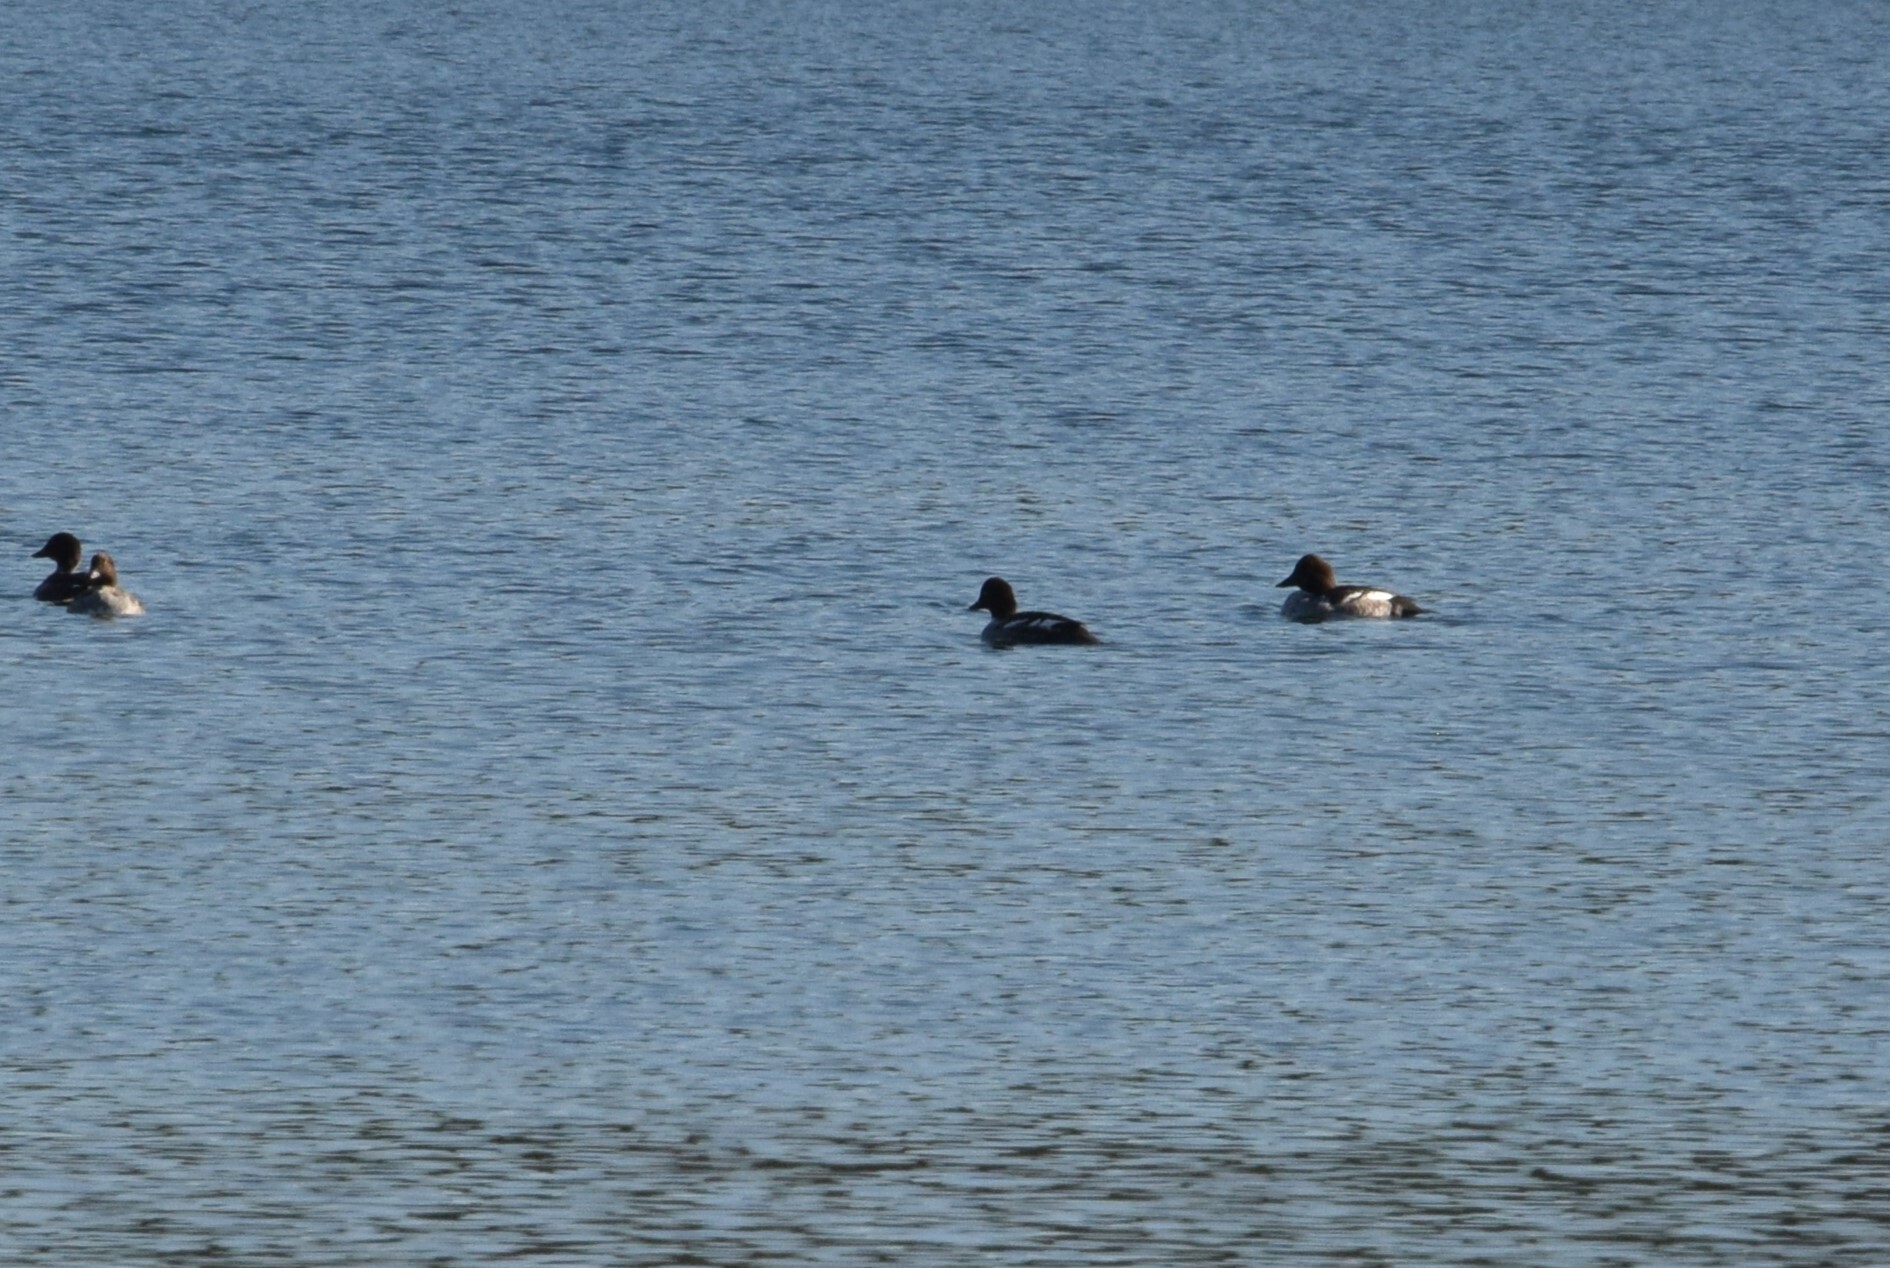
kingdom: Animalia
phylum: Chordata
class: Aves
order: Anseriformes
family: Anatidae
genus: Bucephala
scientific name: Bucephala clangula
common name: Common goldeneye
